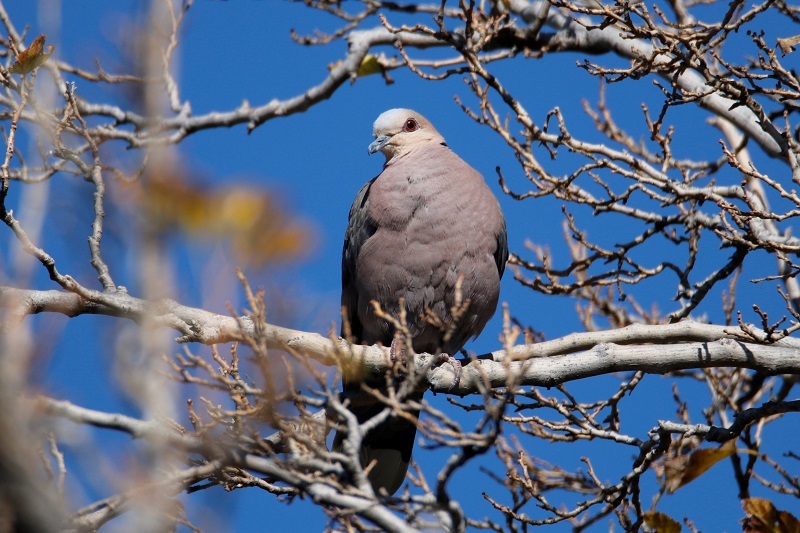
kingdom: Animalia
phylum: Chordata
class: Aves
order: Columbiformes
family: Columbidae
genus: Streptopelia
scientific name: Streptopelia semitorquata
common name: Red-eyed dove
